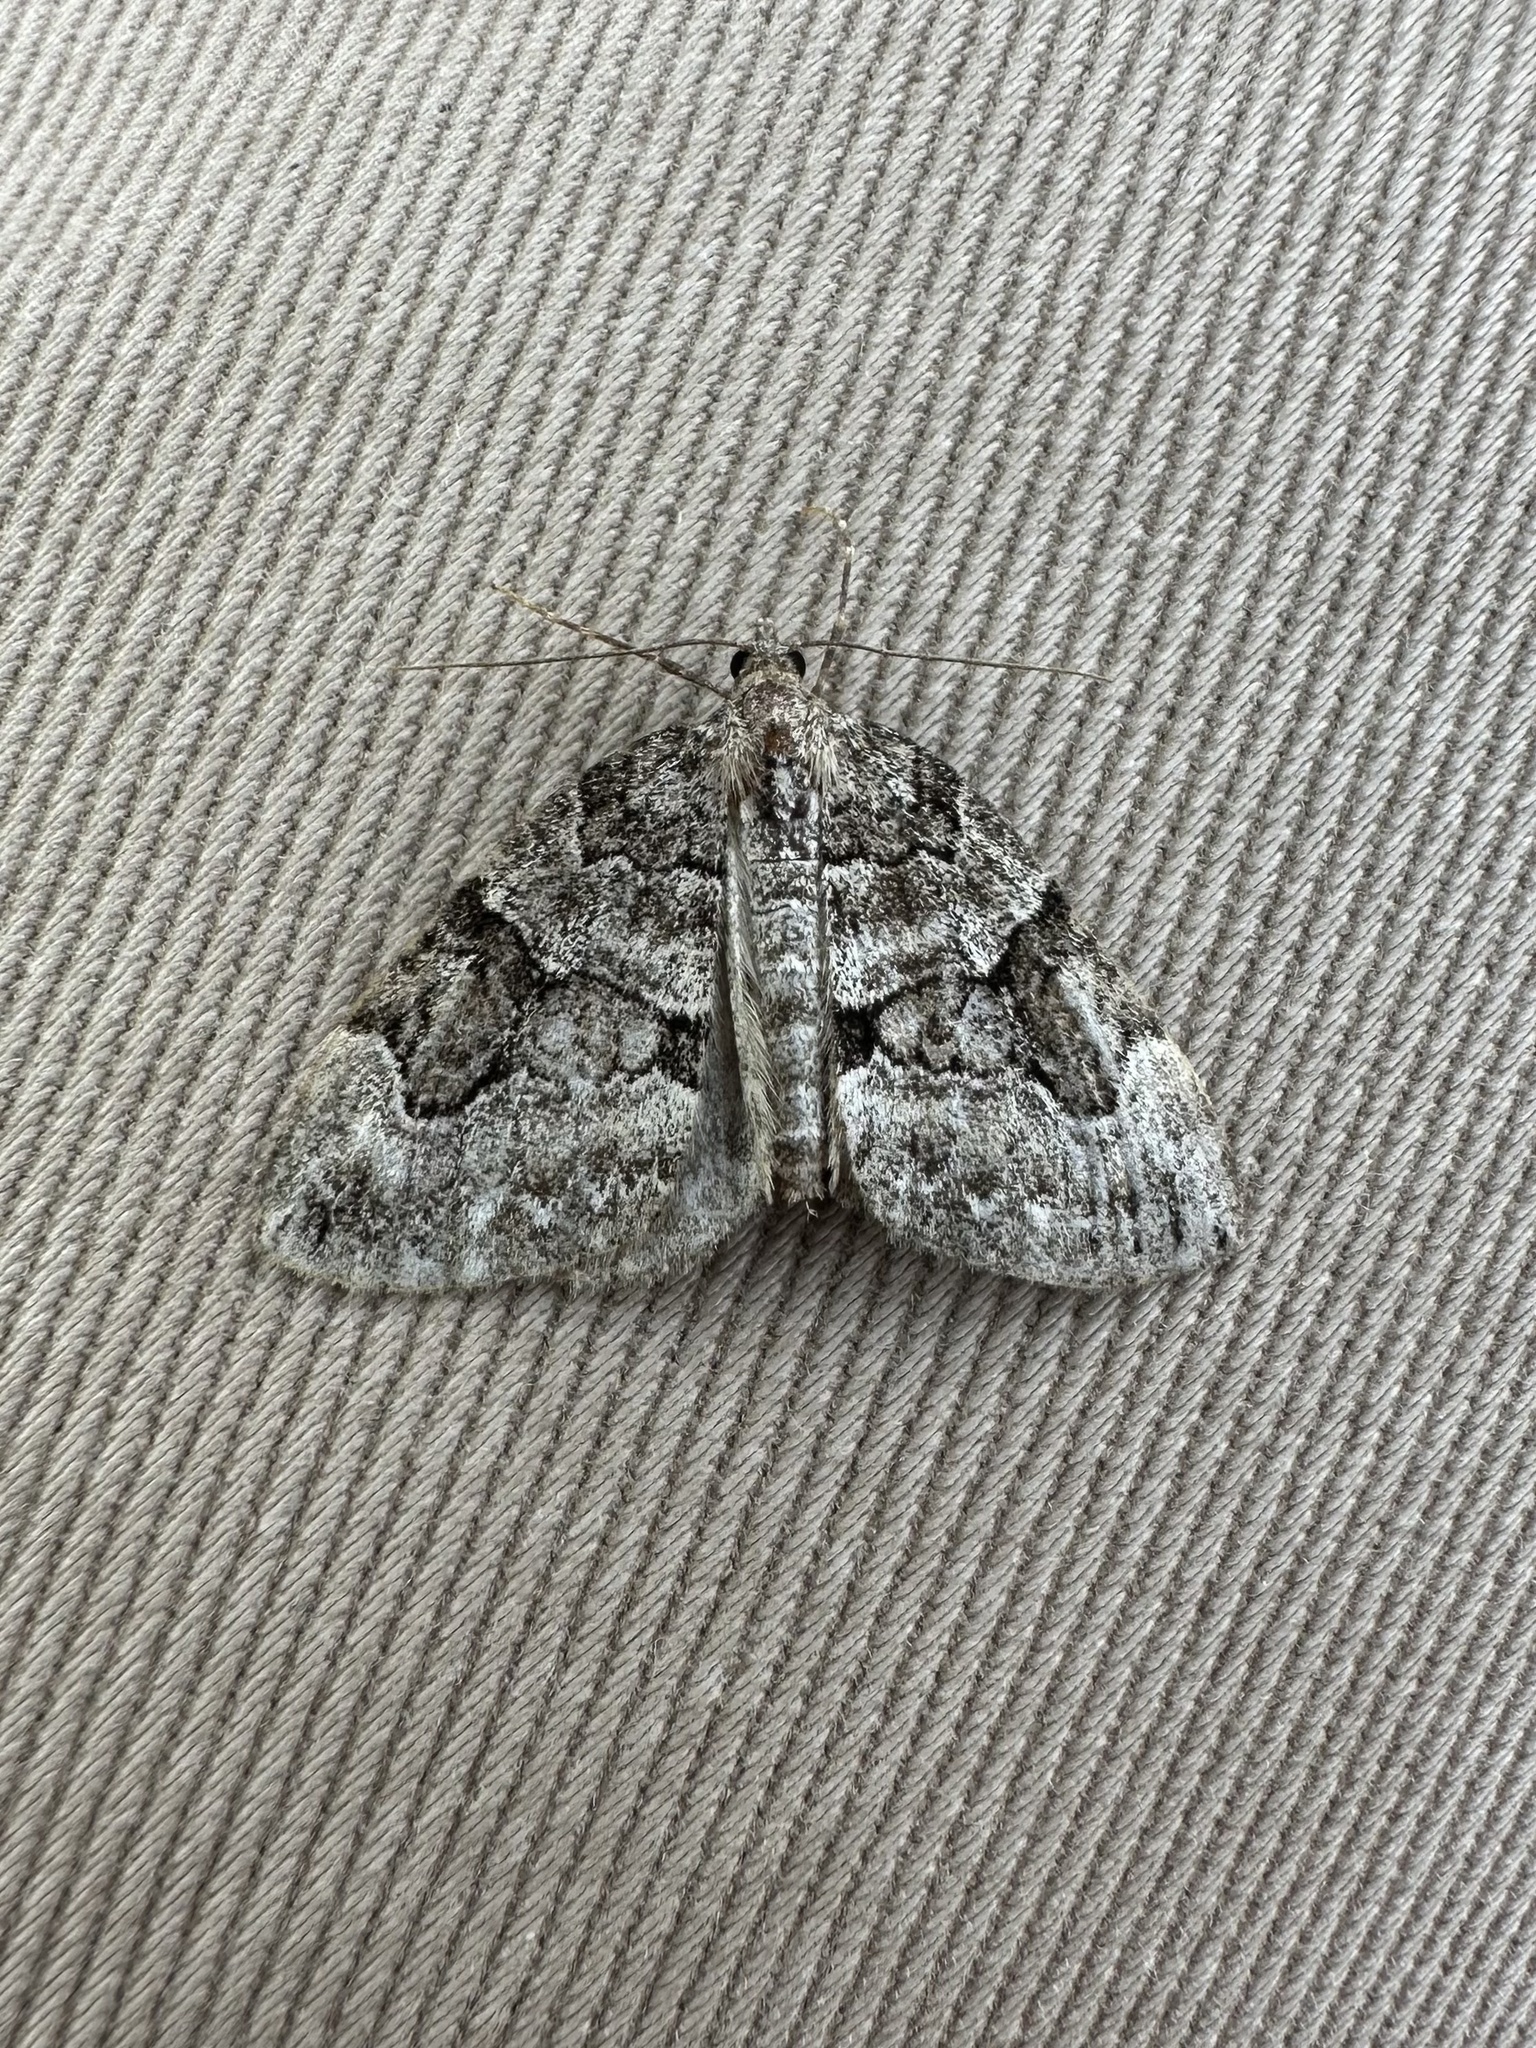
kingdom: Animalia
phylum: Arthropoda
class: Insecta
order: Lepidoptera
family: Geometridae
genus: Thera
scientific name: Thera contractata
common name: Contracted spanworm
